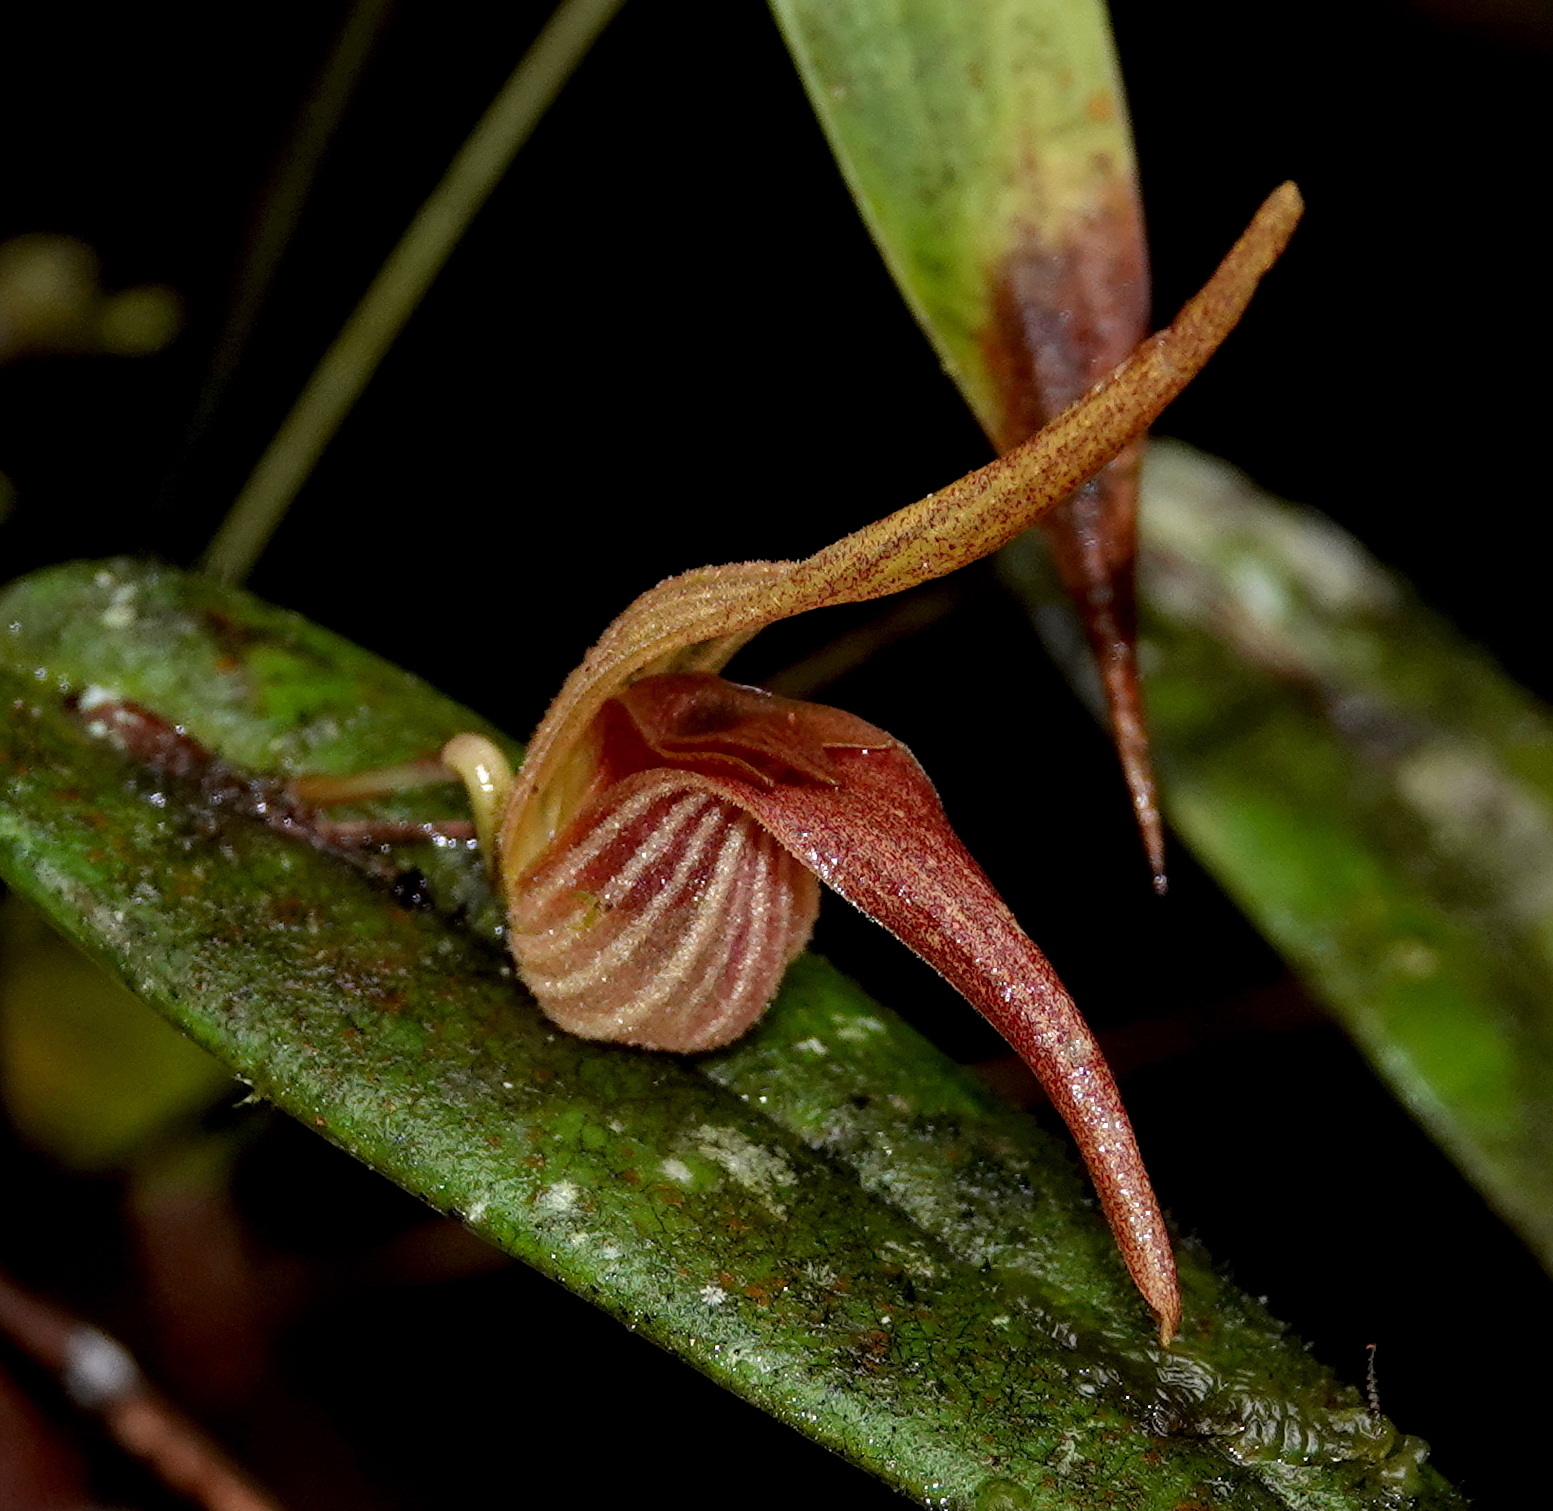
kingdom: Plantae
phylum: Tracheophyta
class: Liliopsida
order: Asparagales
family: Orchidaceae
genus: Pleurothallis
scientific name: Pleurothallis nossax
